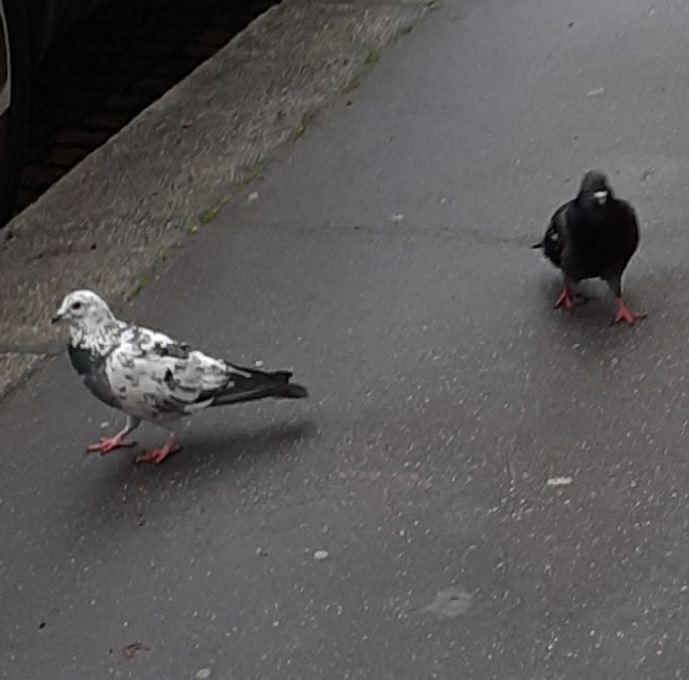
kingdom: Animalia
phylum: Chordata
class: Aves
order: Columbiformes
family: Columbidae
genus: Columba
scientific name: Columba livia
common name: Rock pigeon
